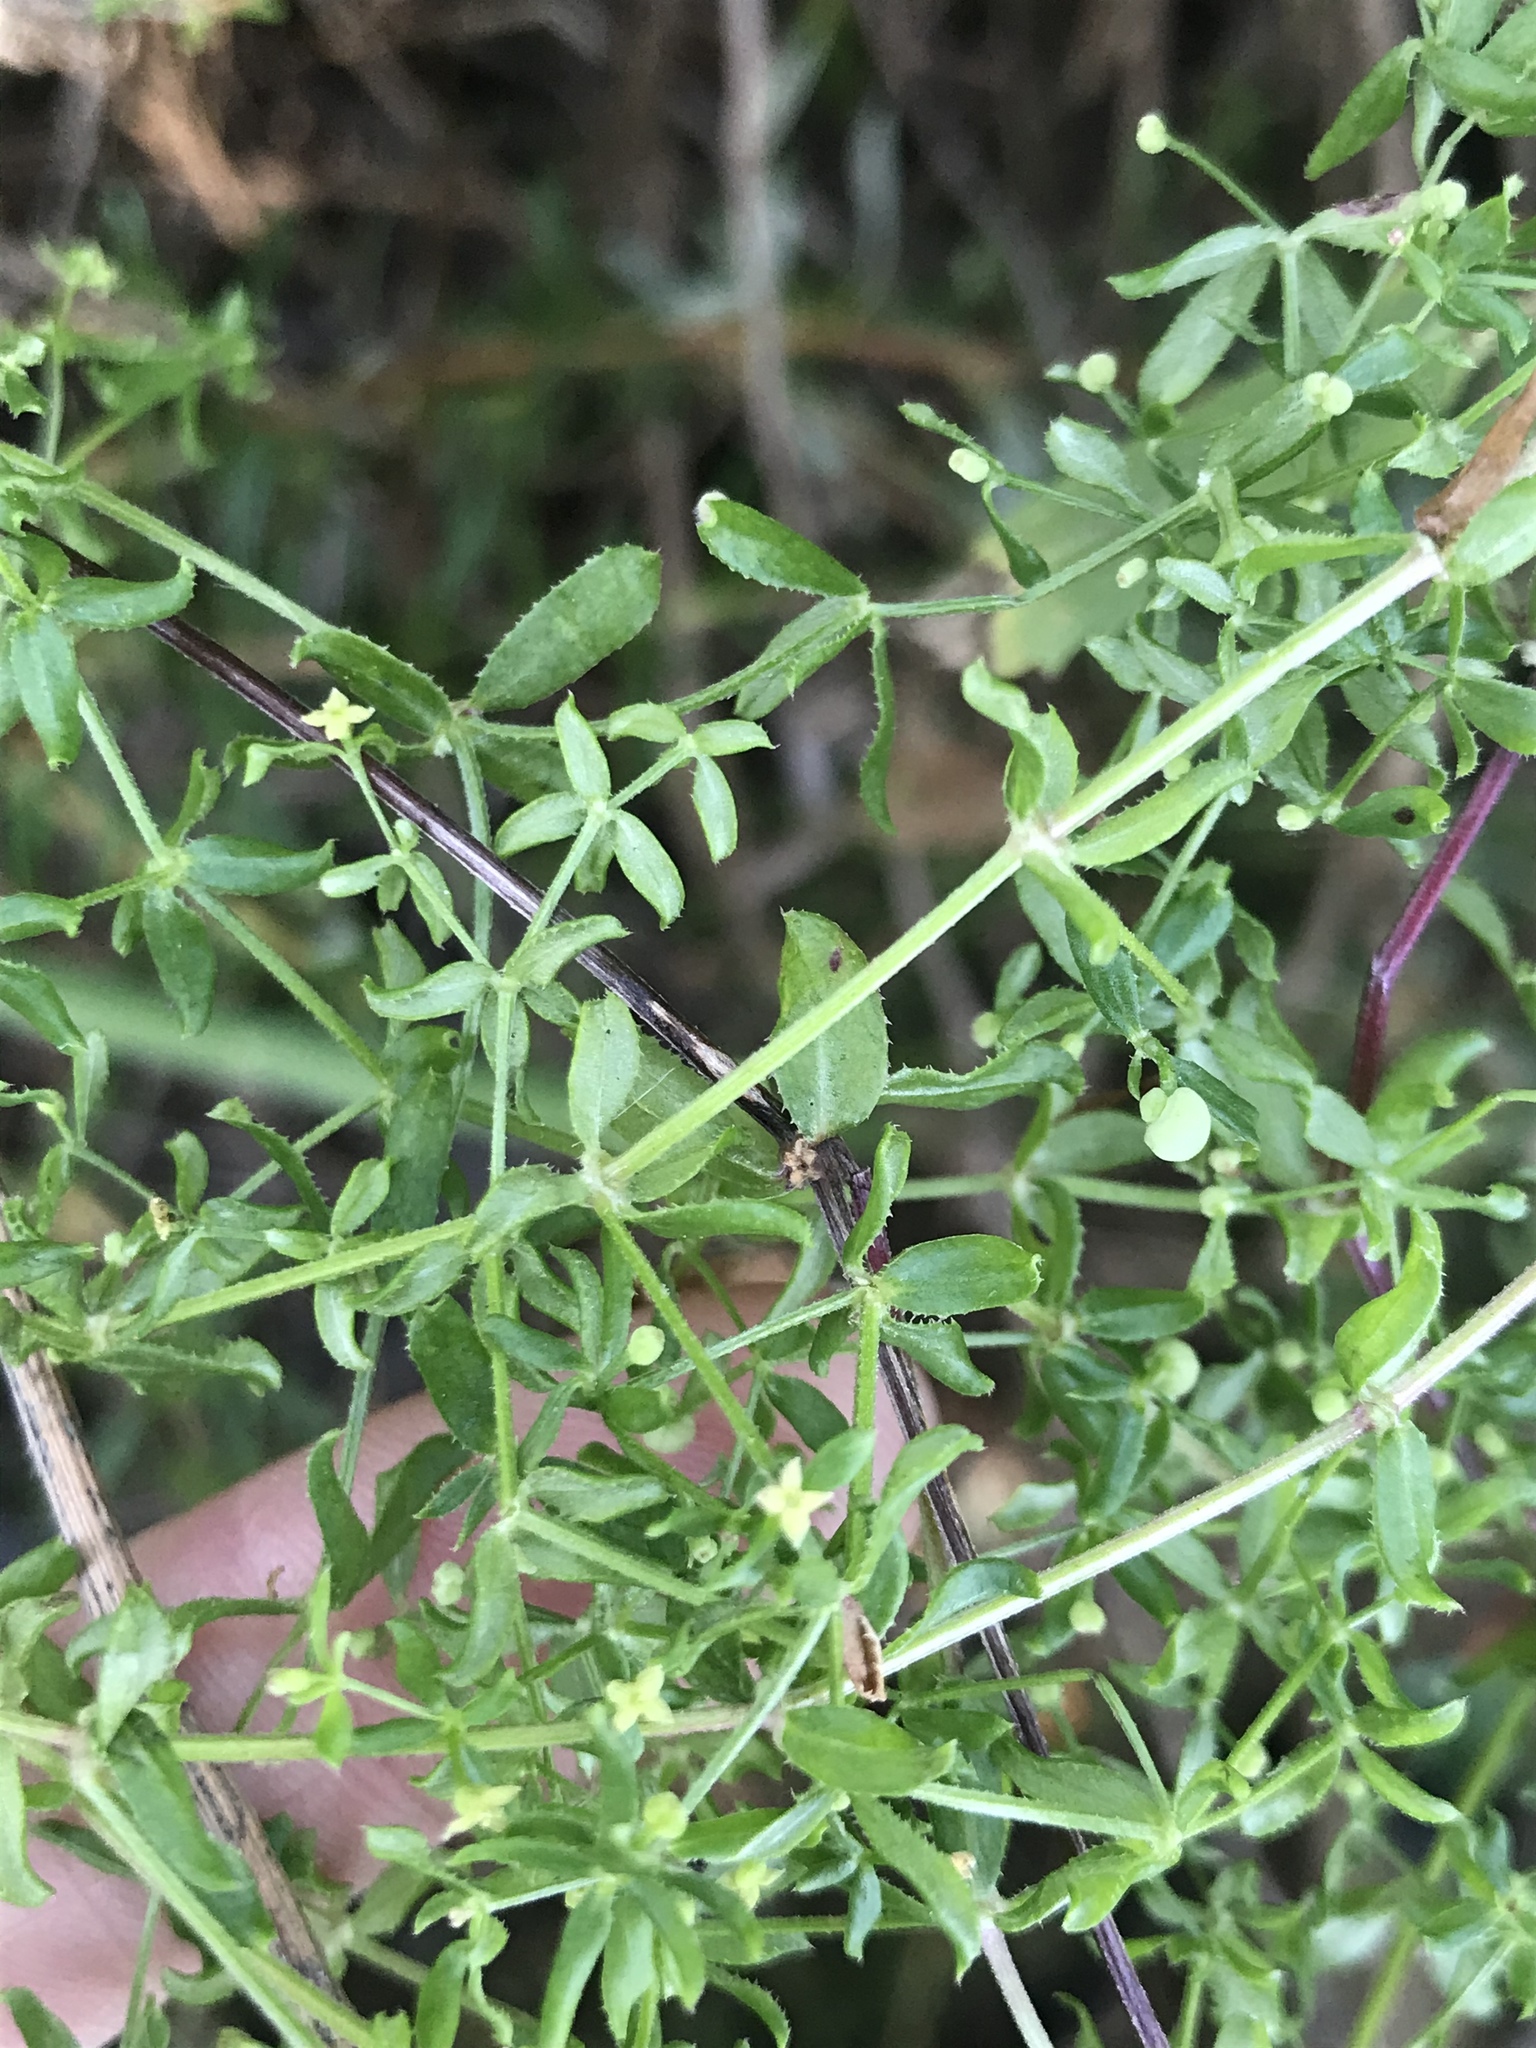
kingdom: Plantae
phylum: Tracheophyta
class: Magnoliopsida
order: Gentianales
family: Rubiaceae
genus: Galium
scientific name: Galium porrigens
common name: Climbing bedstraw
